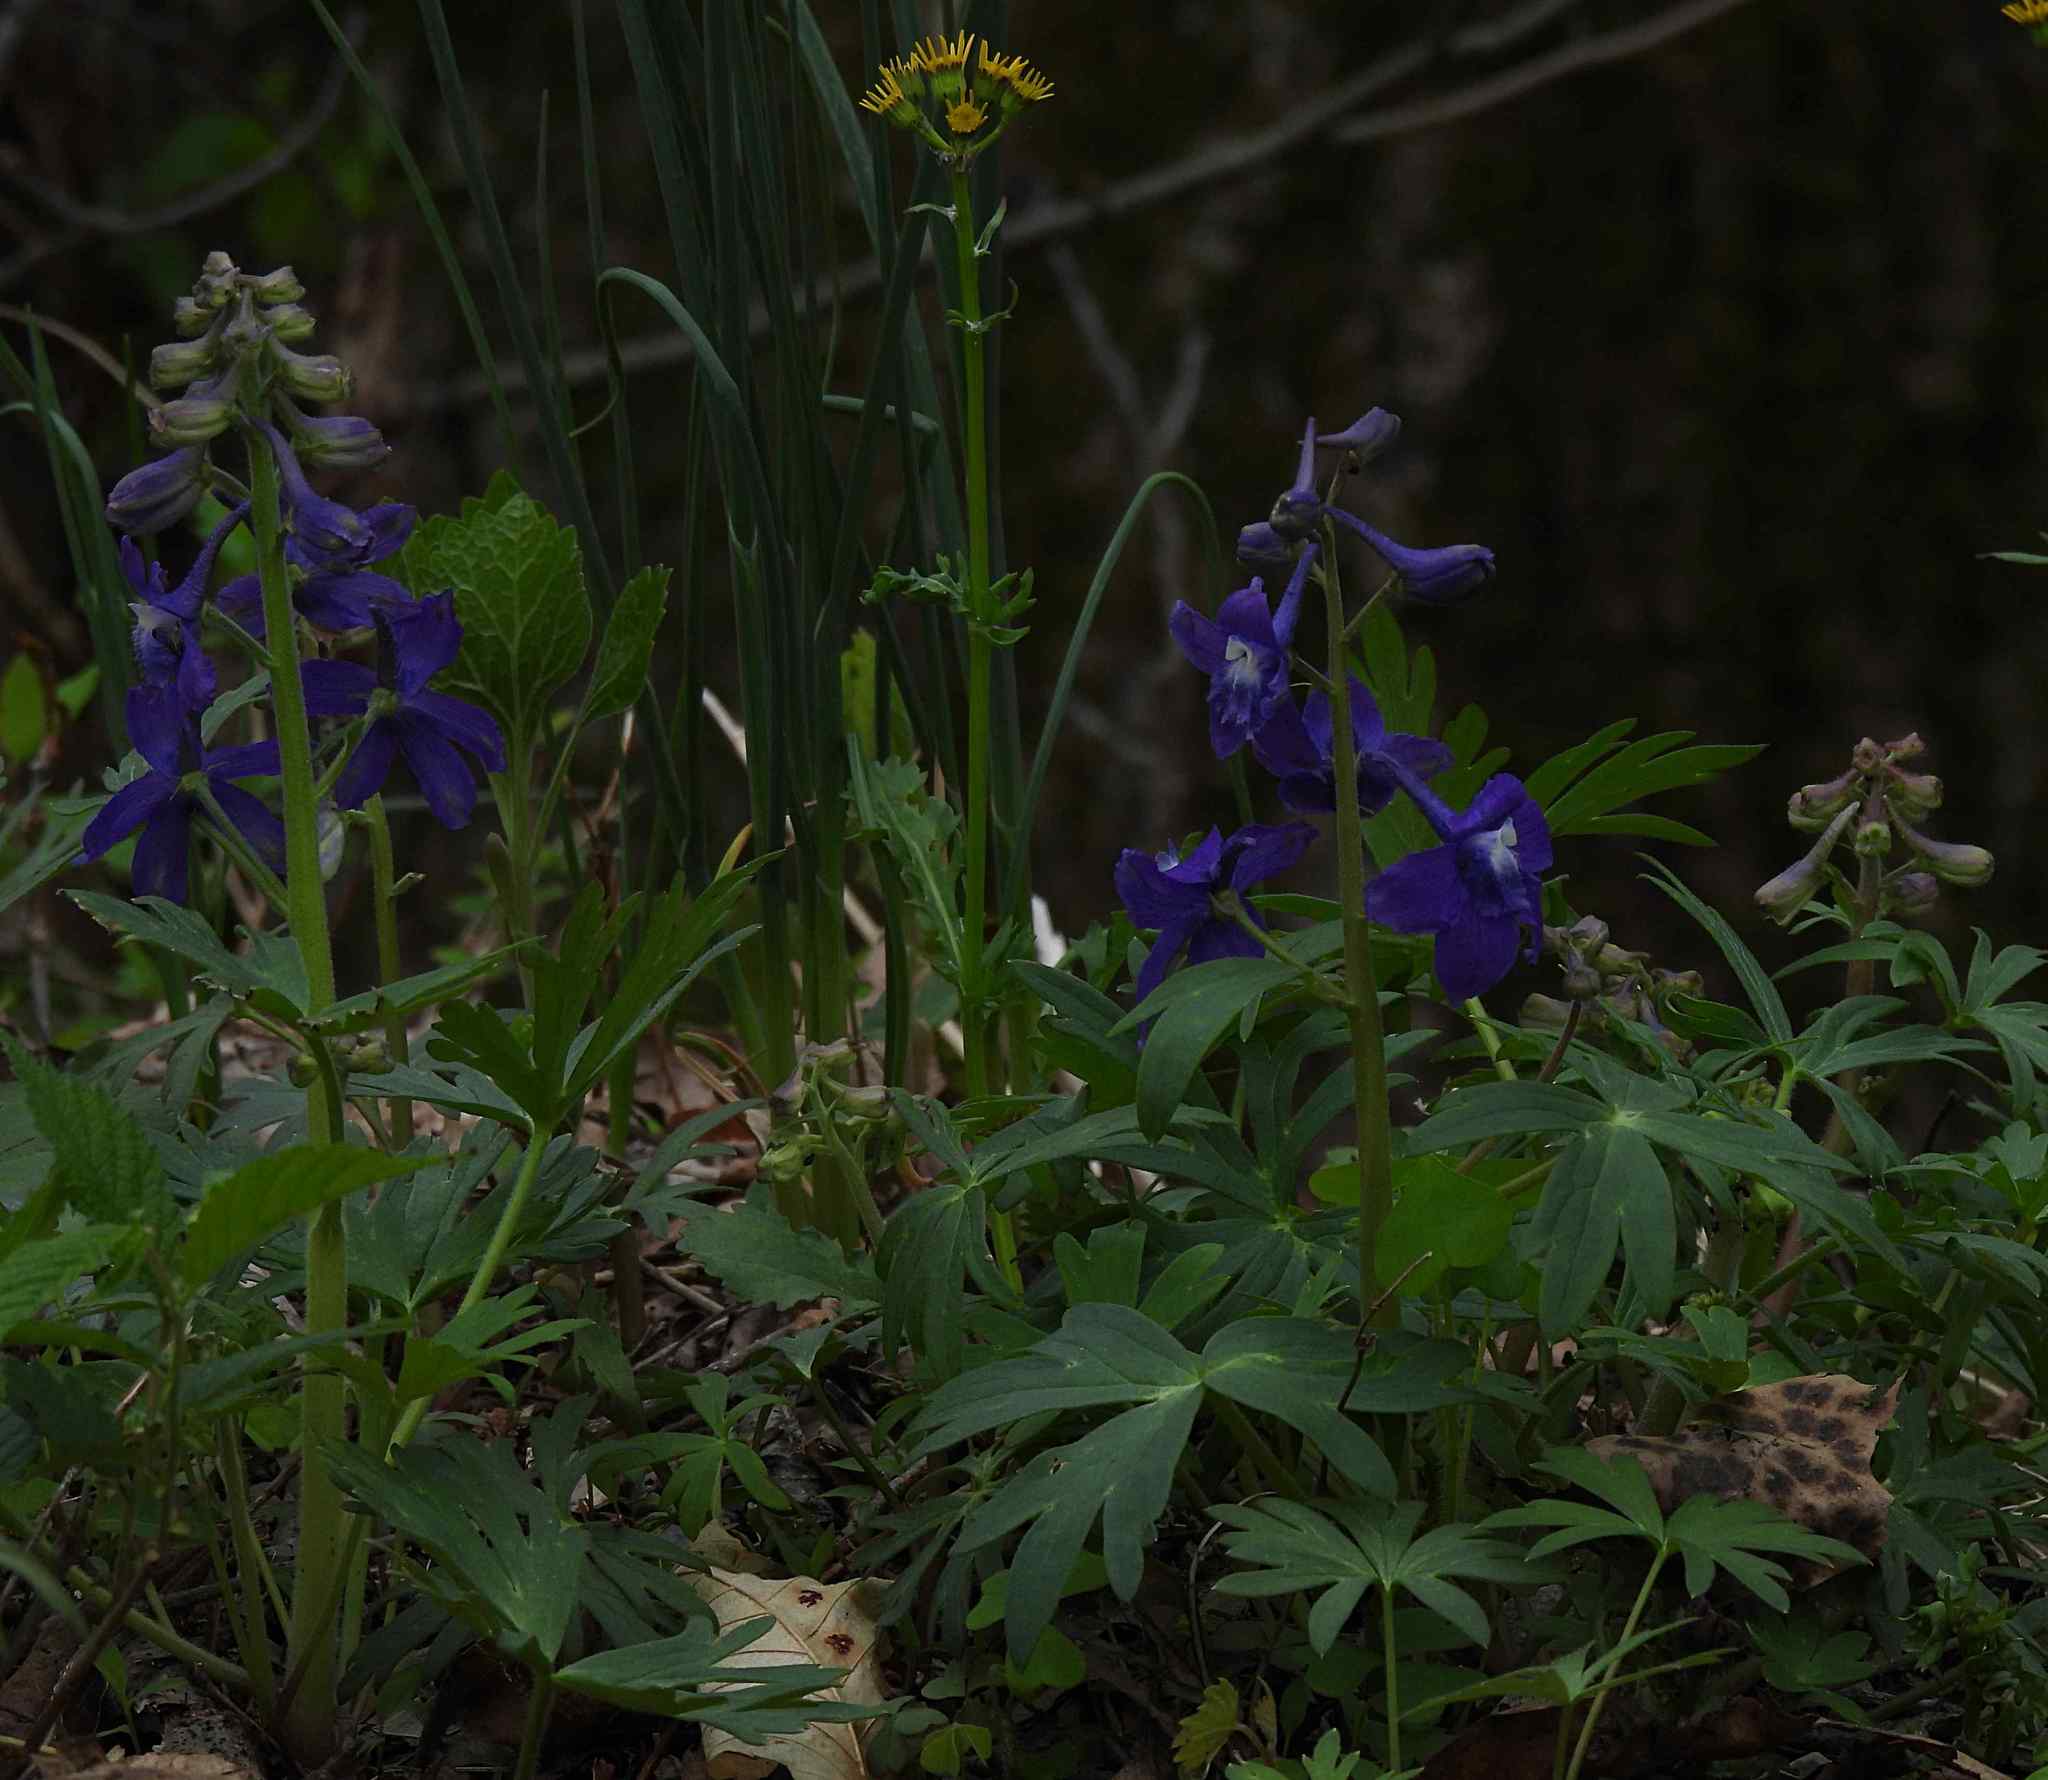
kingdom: Plantae
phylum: Tracheophyta
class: Magnoliopsida
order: Ranunculales
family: Ranunculaceae
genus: Delphinium
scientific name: Delphinium tricorne
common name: Dwarf larkspur
